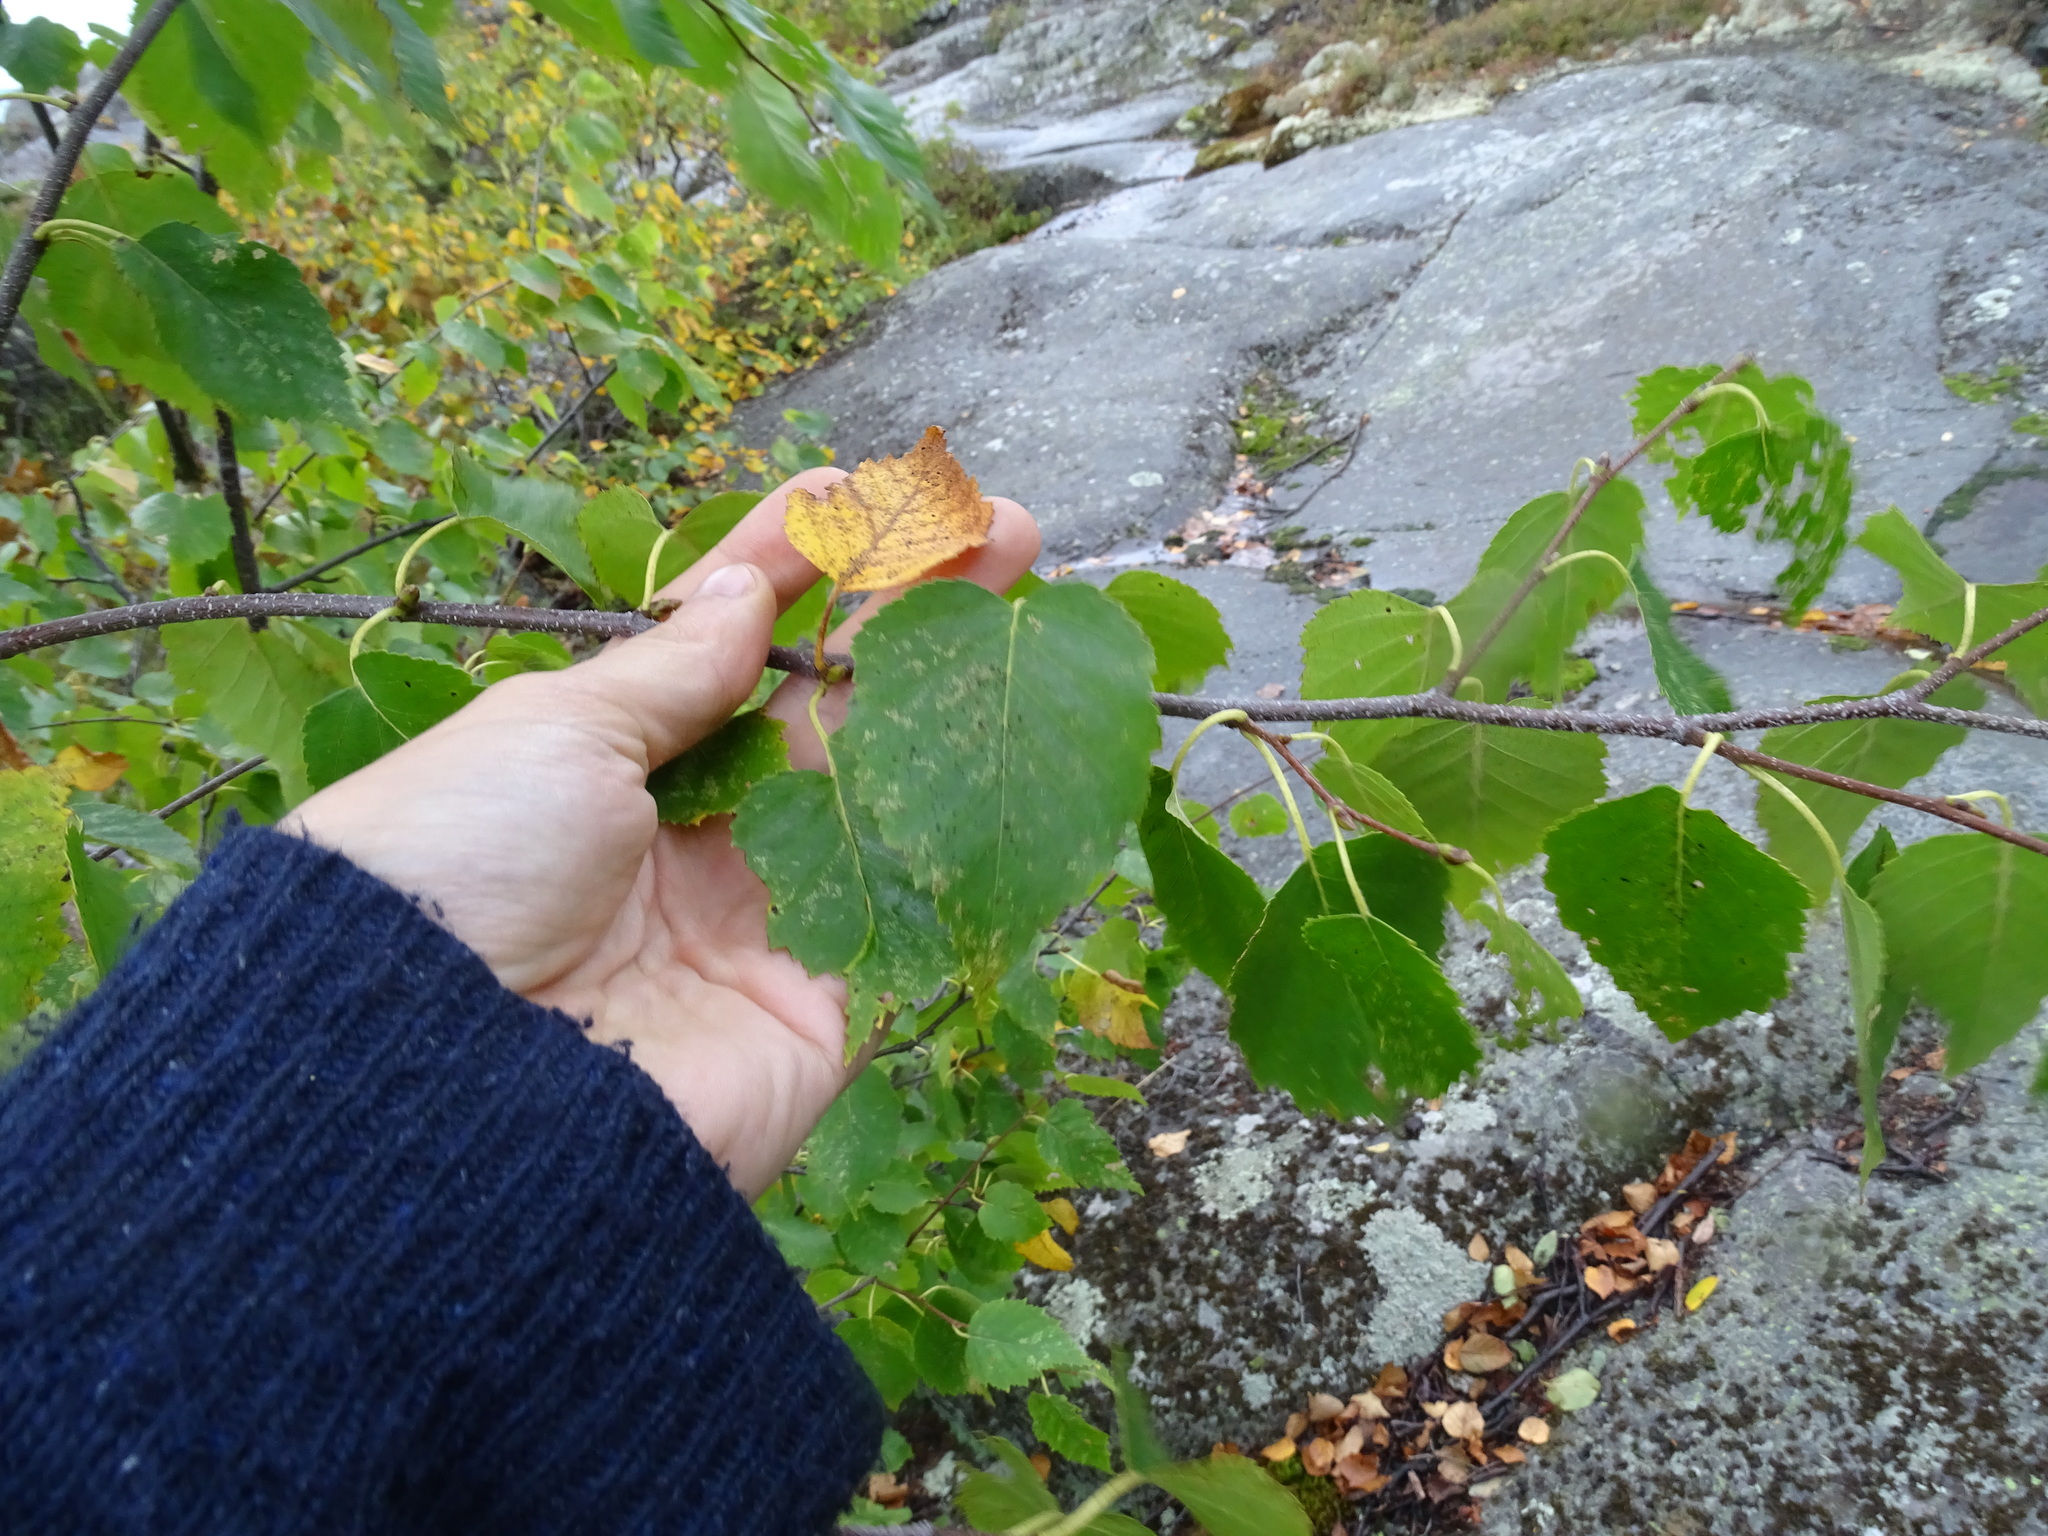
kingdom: Plantae
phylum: Tracheophyta
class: Magnoliopsida
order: Fagales
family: Betulaceae
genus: Betula
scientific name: Betula papyrifera
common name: Paper birch
